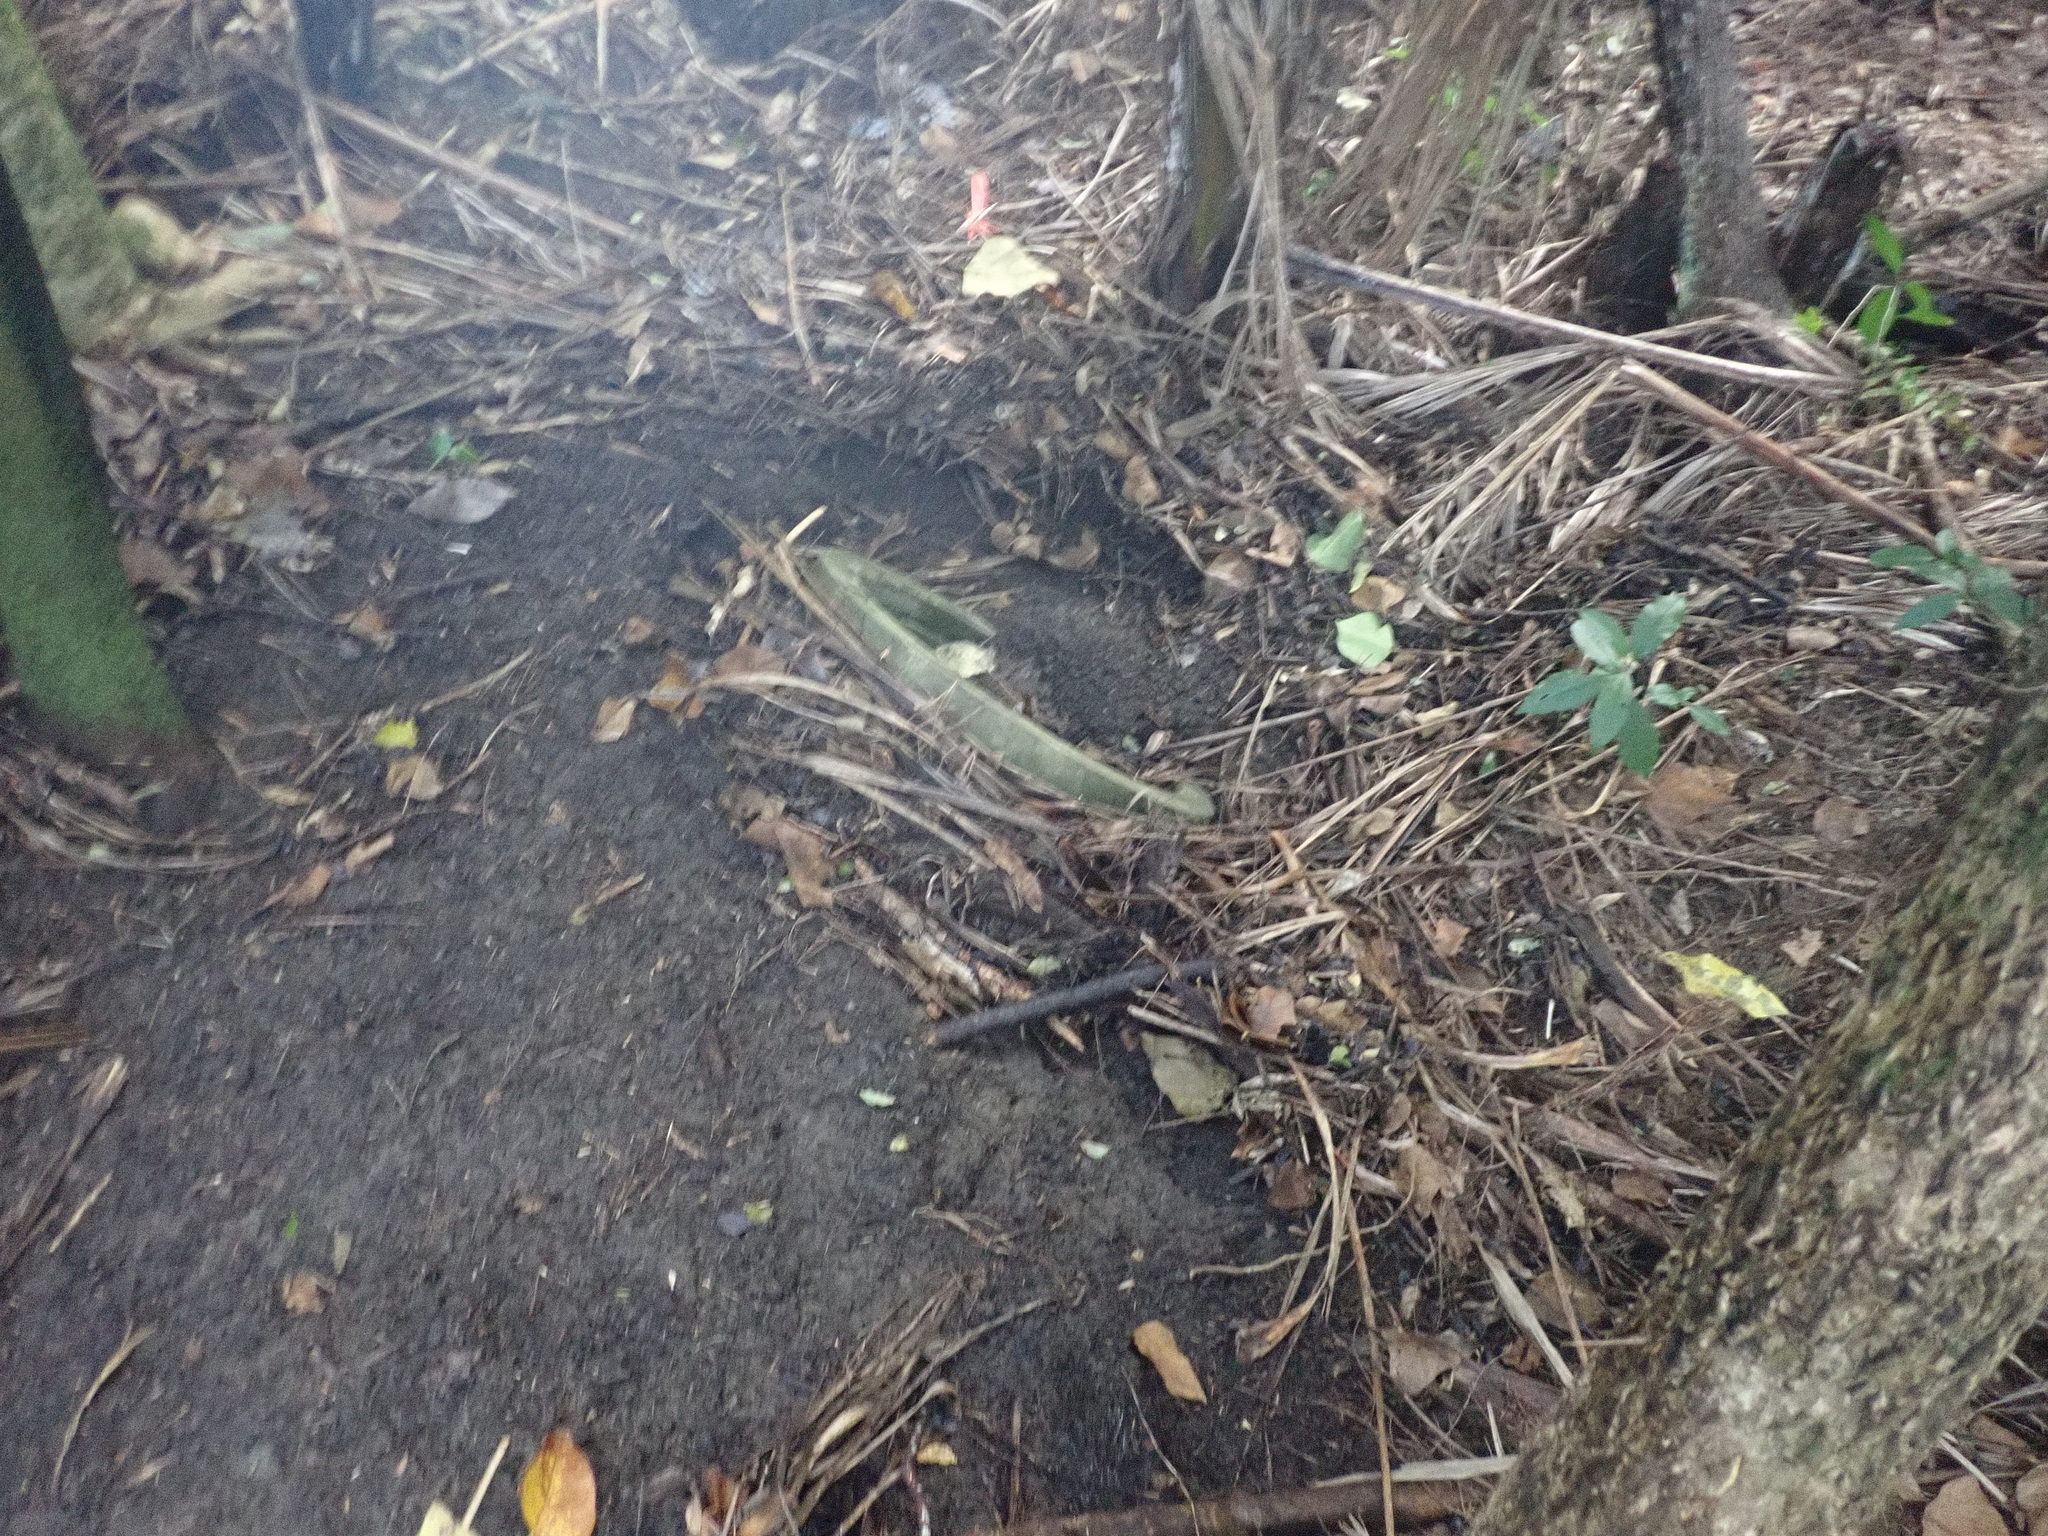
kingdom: Plantae
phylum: Tracheophyta
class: Magnoliopsida
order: Malpighiales
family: Violaceae
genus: Melicytus
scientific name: Melicytus ramiflorus
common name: Mahoe
